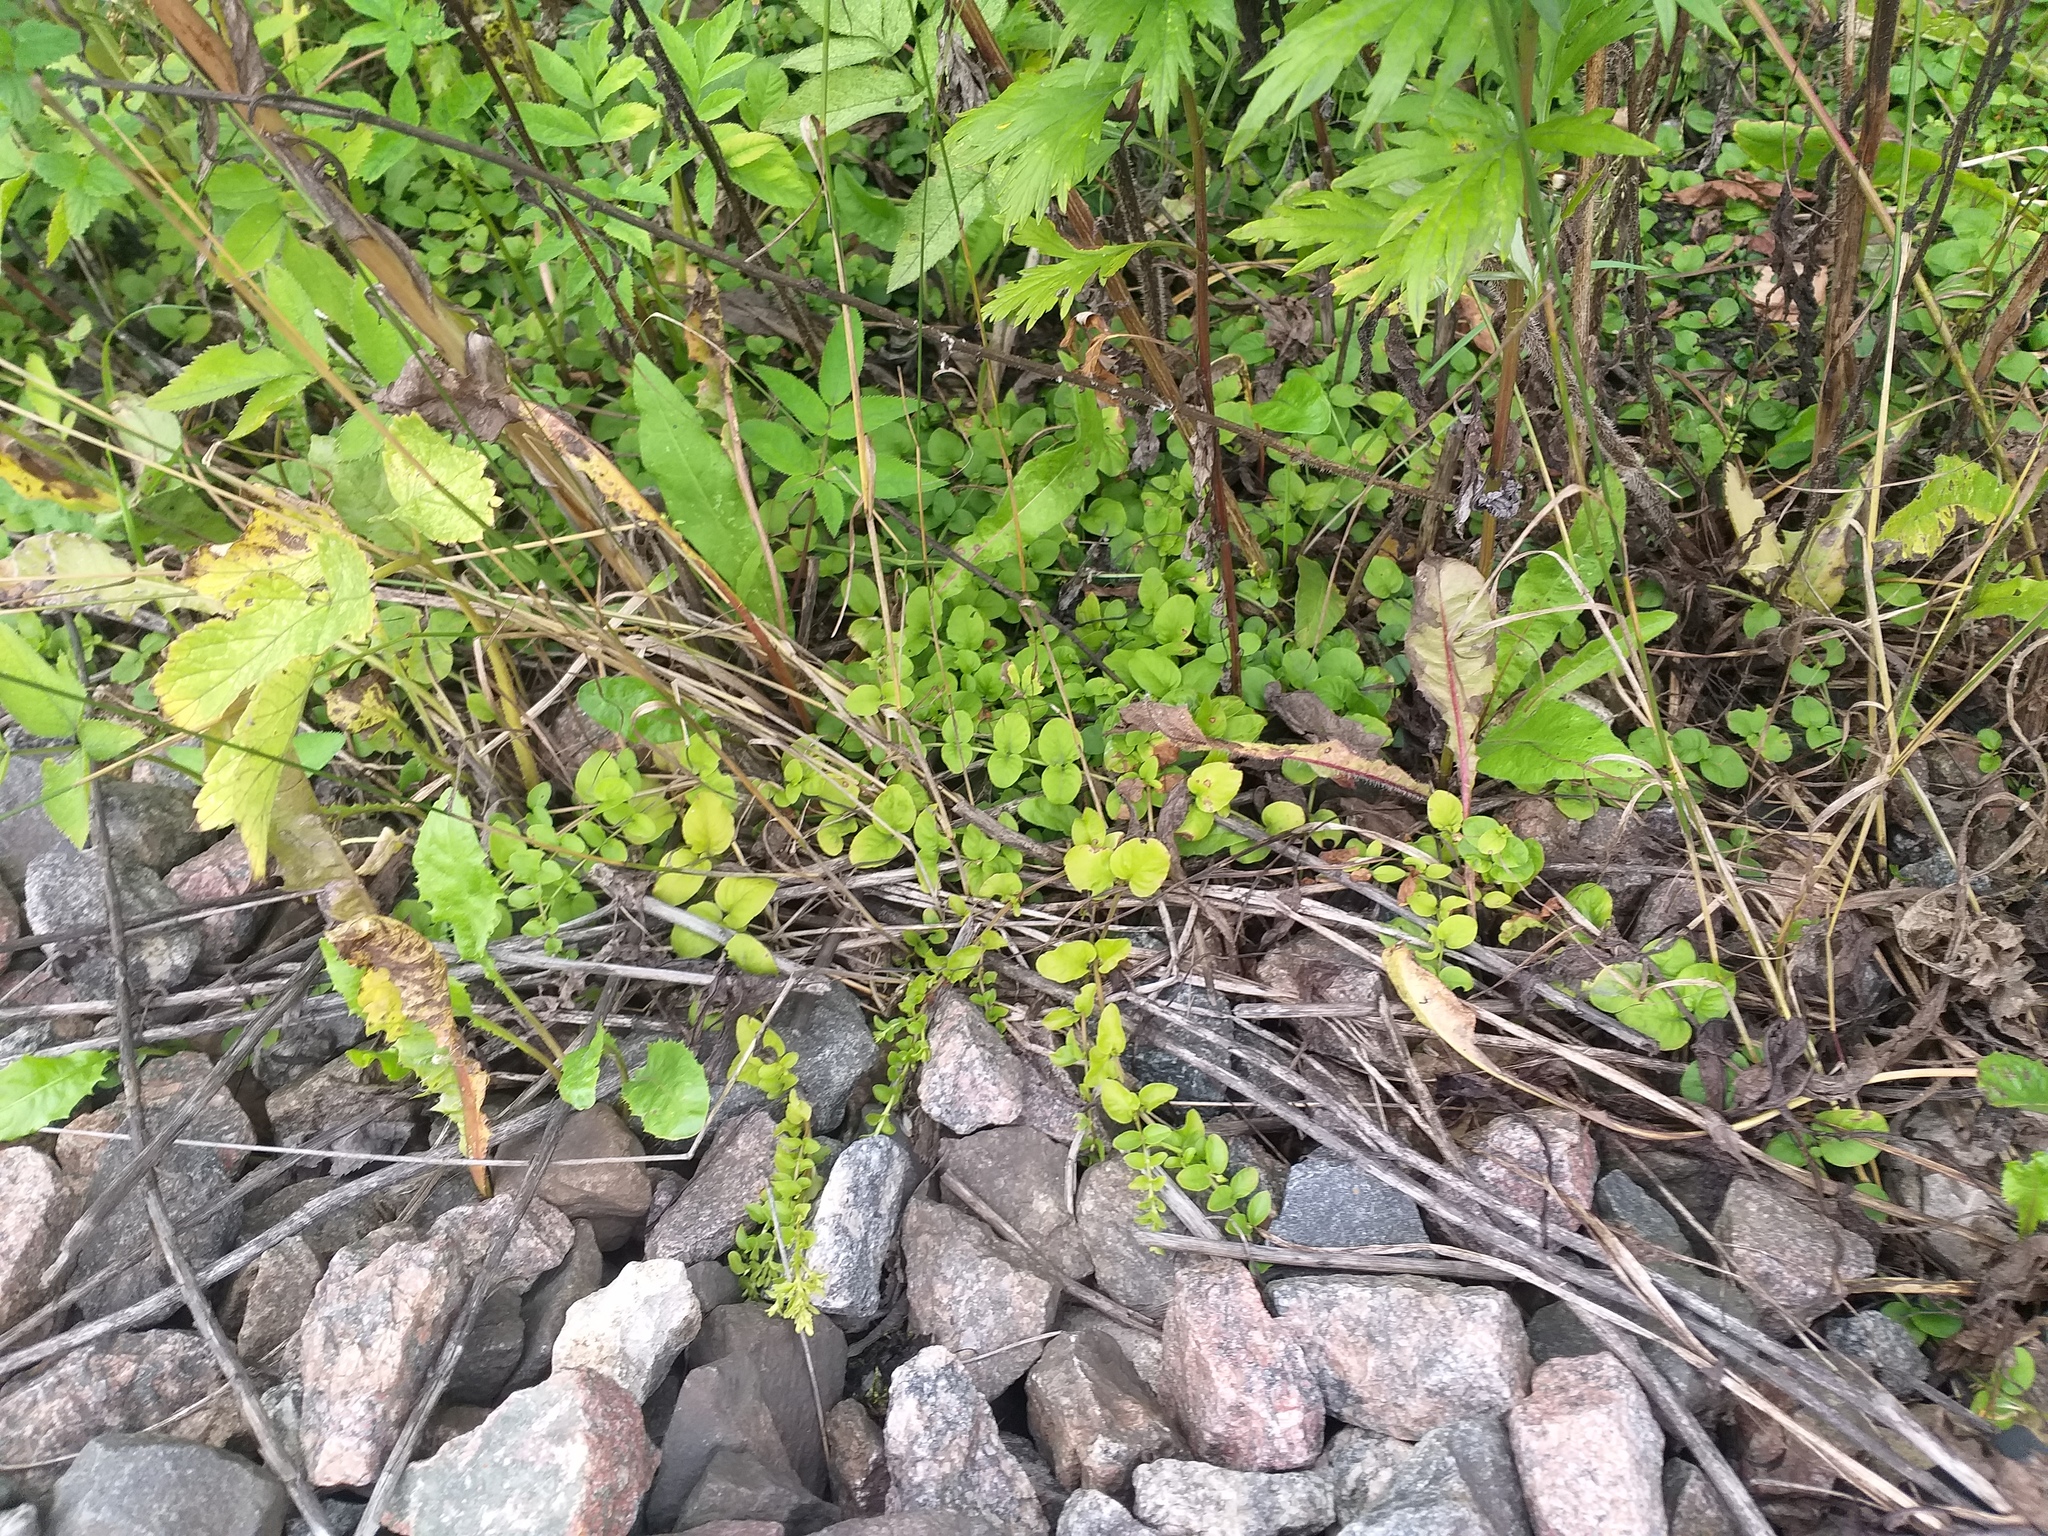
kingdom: Plantae
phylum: Tracheophyta
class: Magnoliopsida
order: Ericales
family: Primulaceae
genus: Lysimachia
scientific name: Lysimachia nummularia
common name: Moneywort
